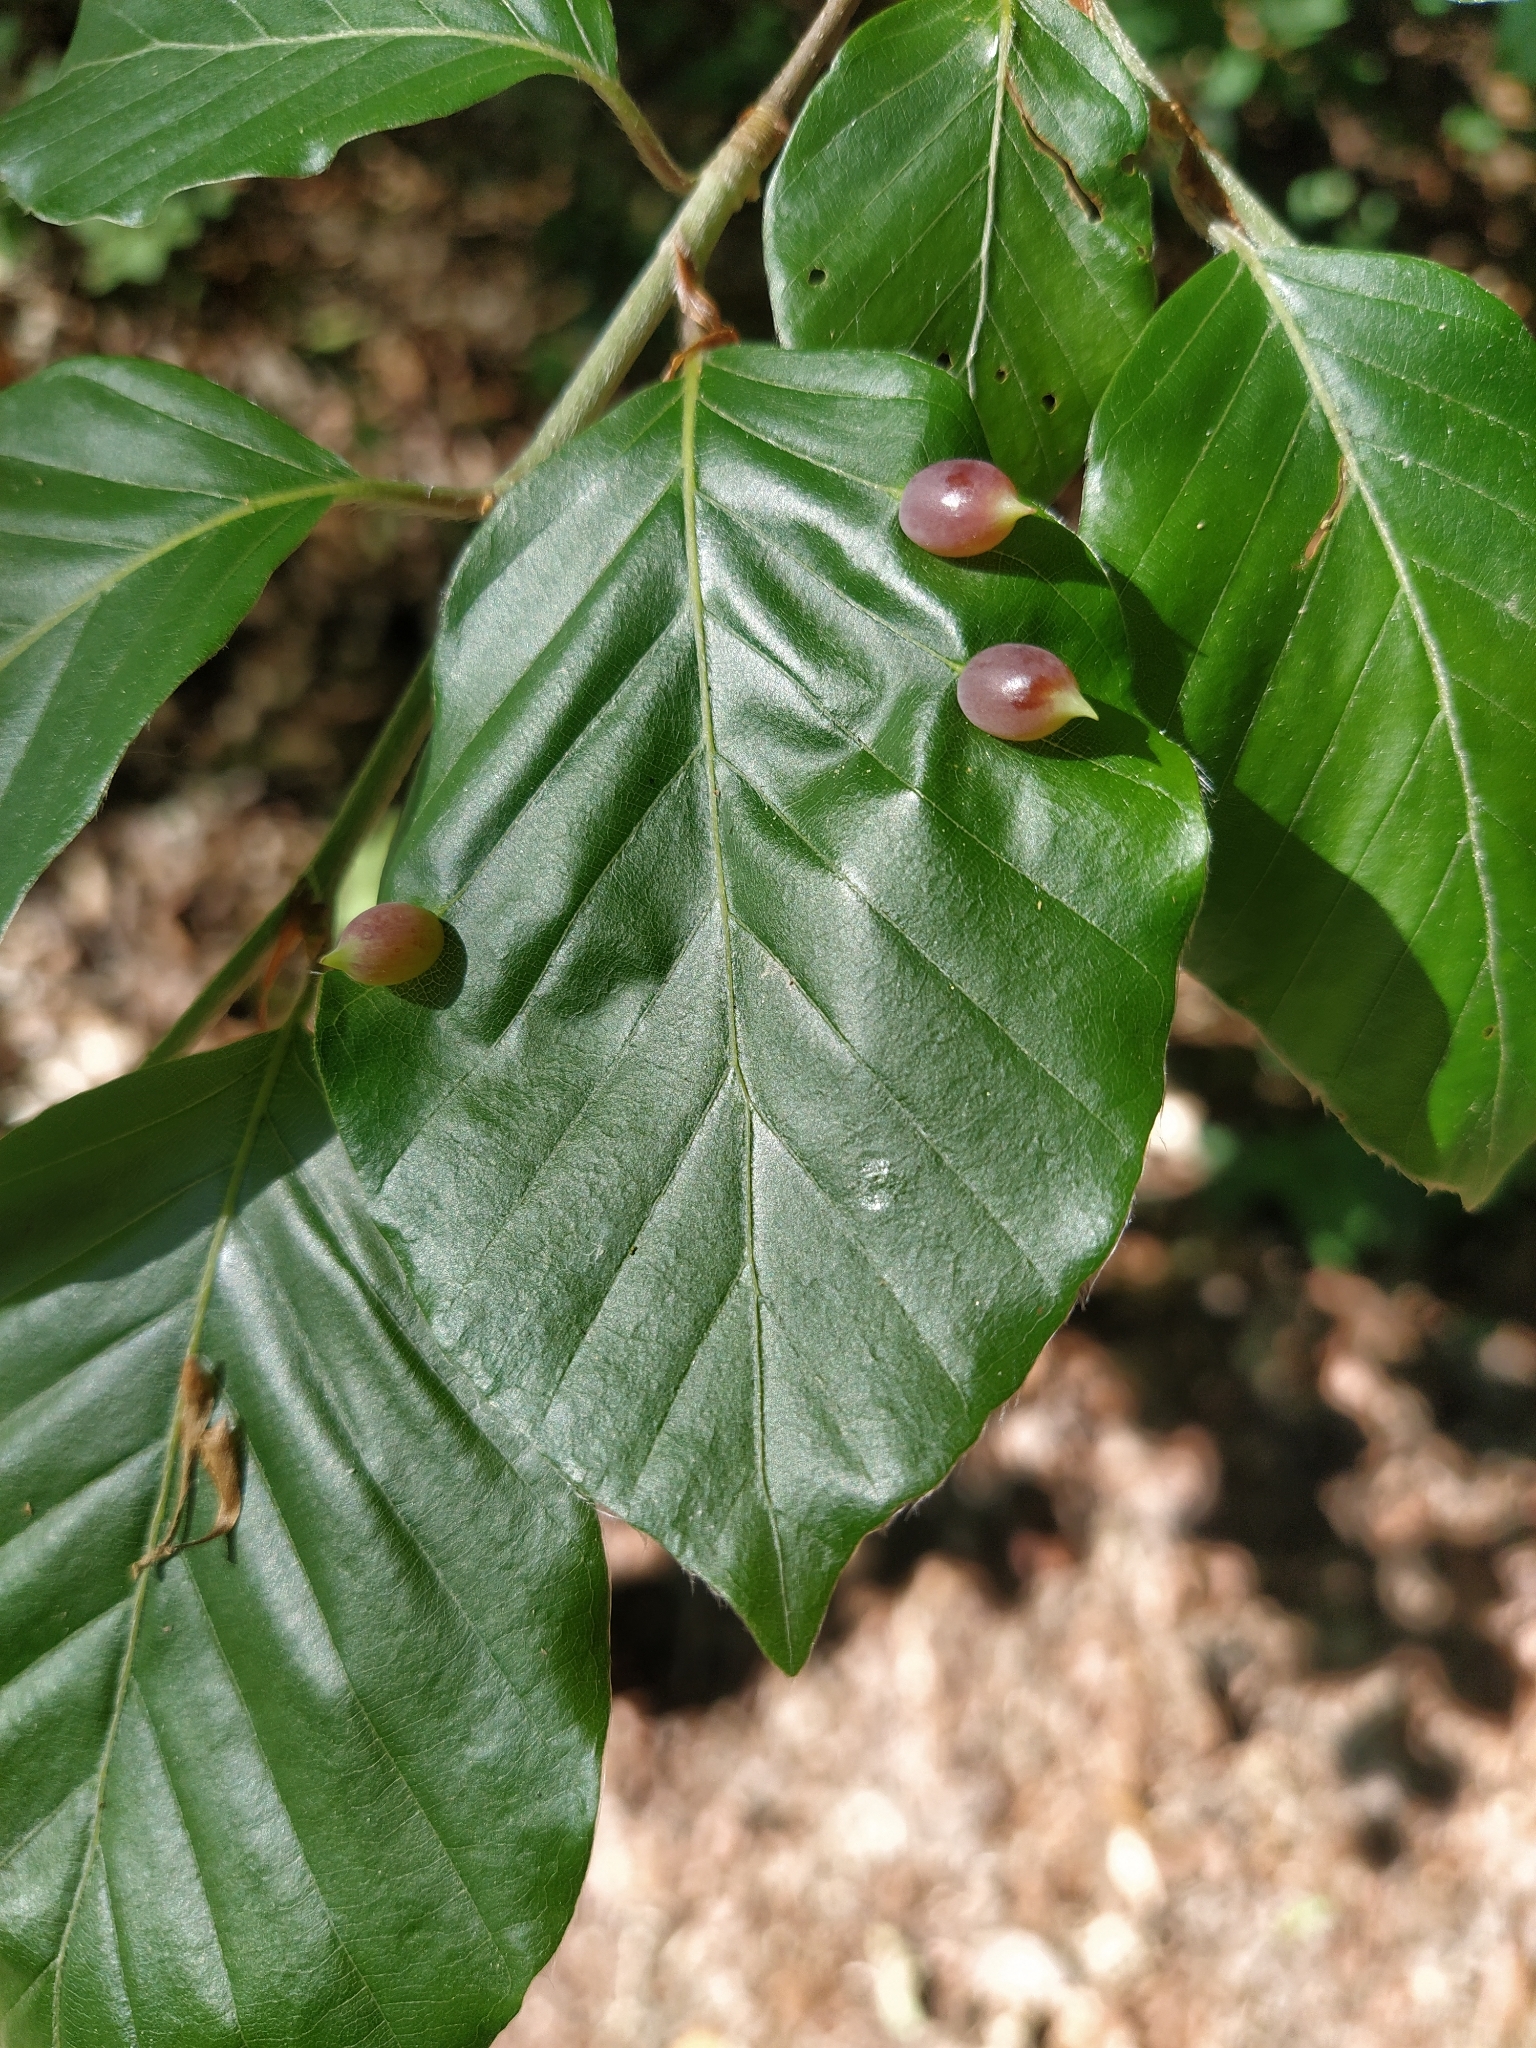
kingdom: Animalia
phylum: Arthropoda
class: Insecta
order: Diptera
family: Cecidomyiidae
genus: Mikiola
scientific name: Mikiola fagi
